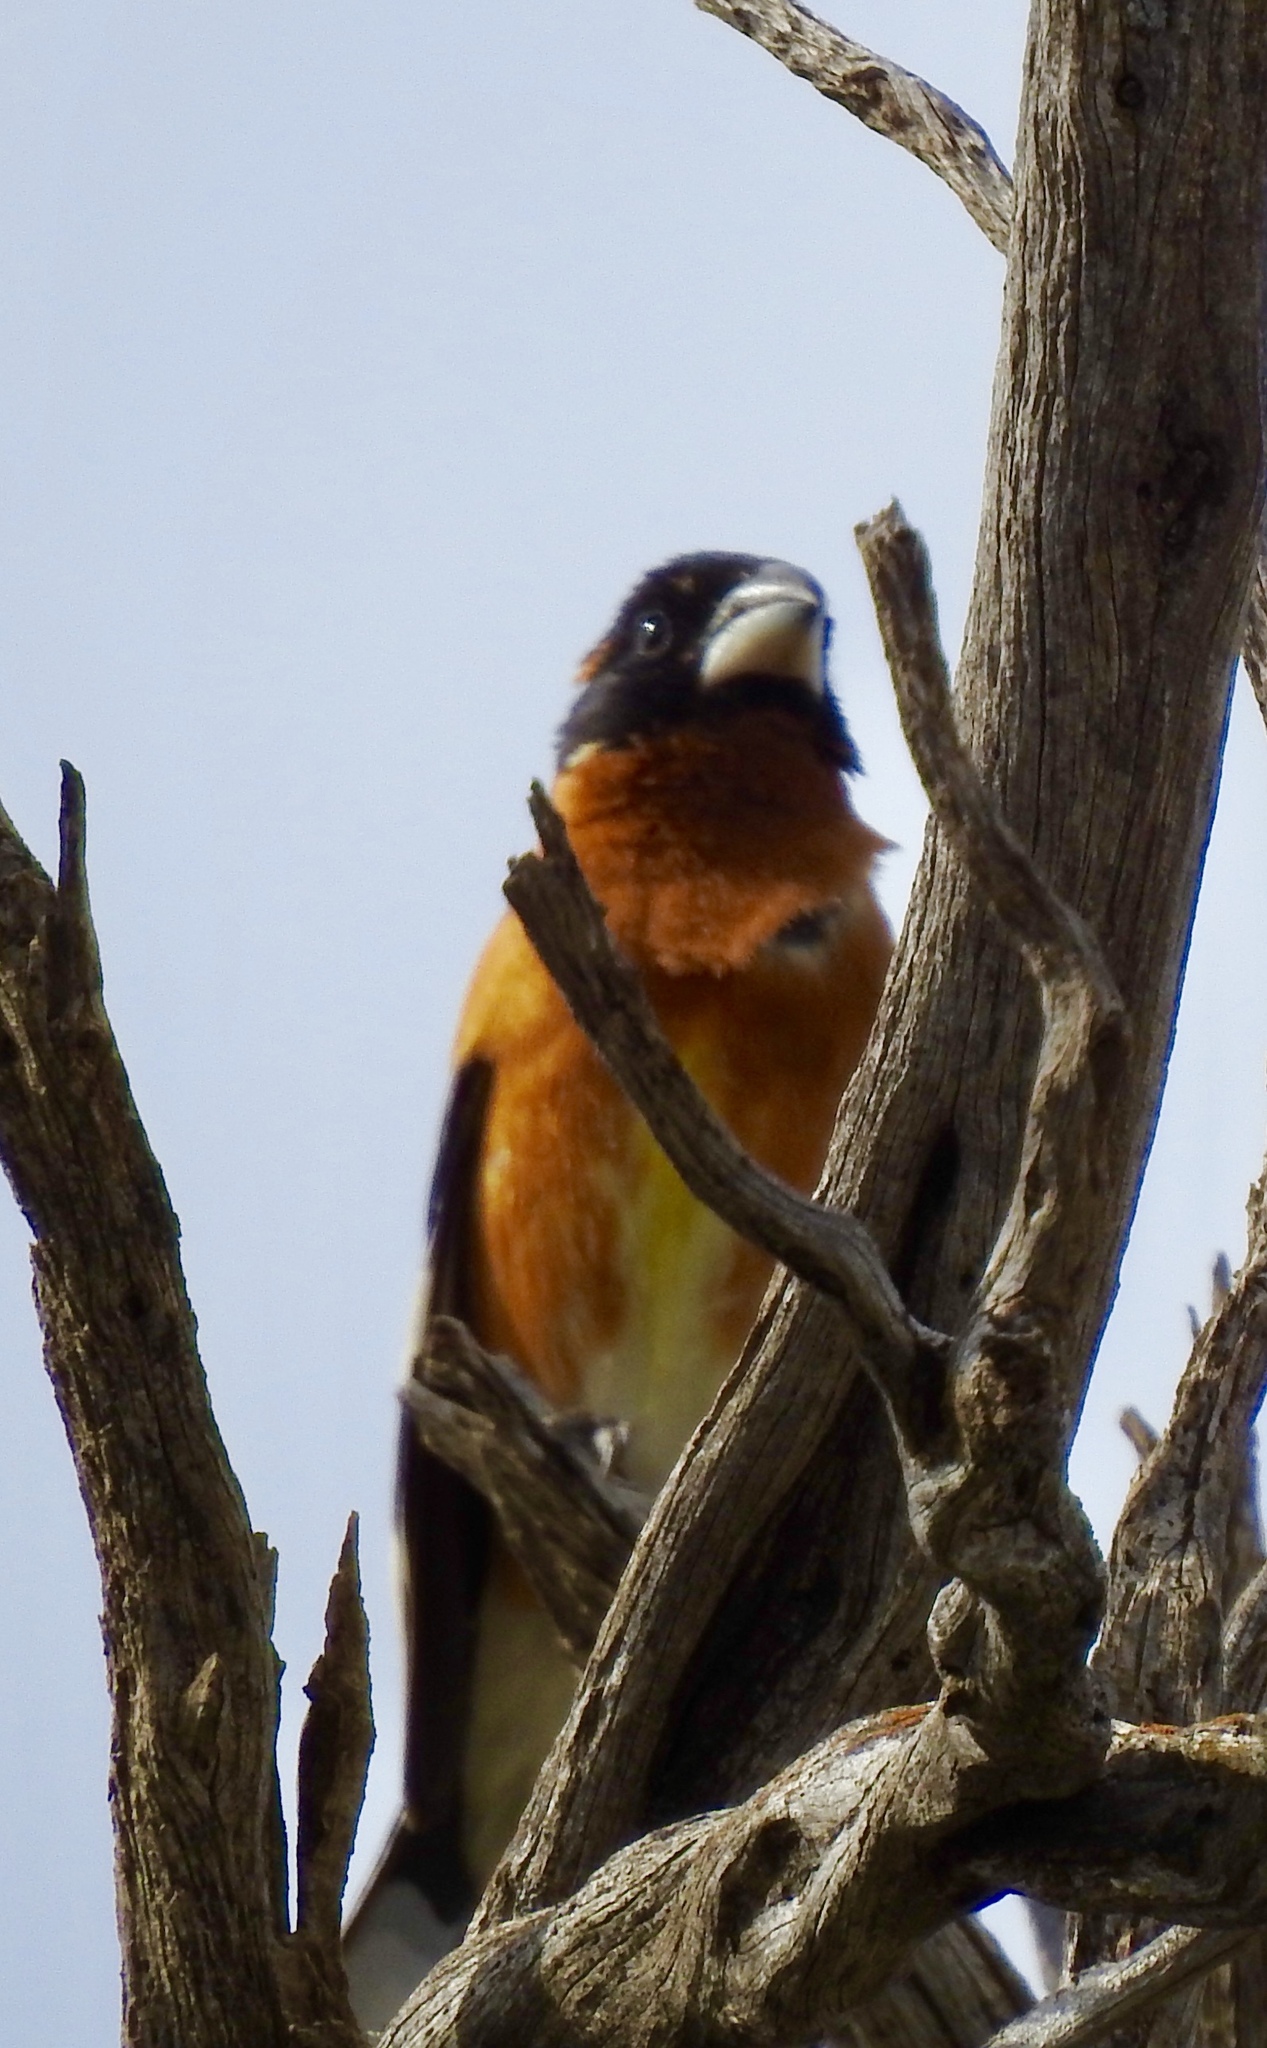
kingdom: Animalia
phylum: Chordata
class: Aves
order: Passeriformes
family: Cardinalidae
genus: Pheucticus
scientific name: Pheucticus melanocephalus
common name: Black-headed grosbeak
